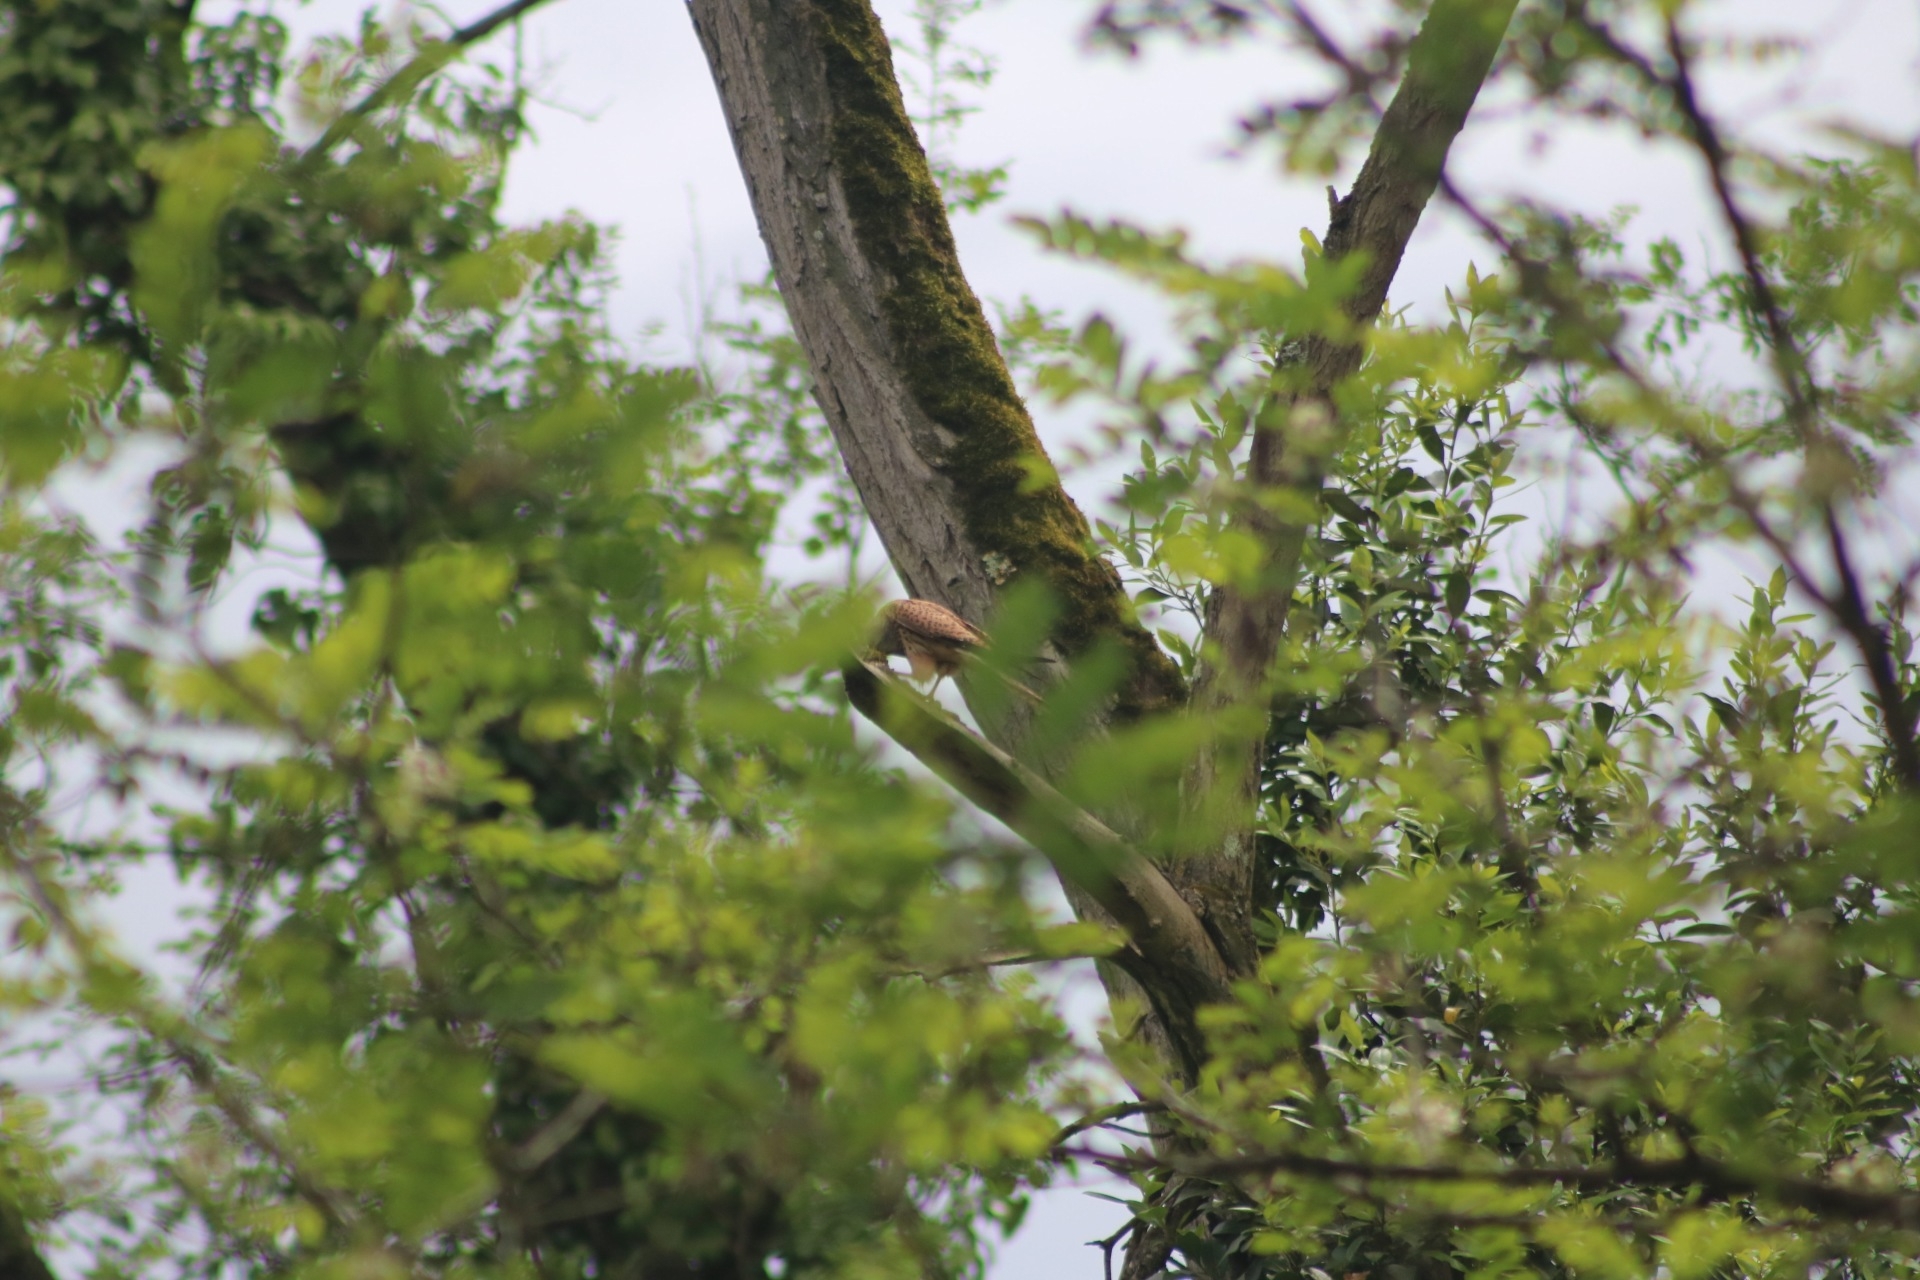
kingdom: Animalia
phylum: Chordata
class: Aves
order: Falconiformes
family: Falconidae
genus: Falco
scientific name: Falco tinnunculus
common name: Common kestrel
